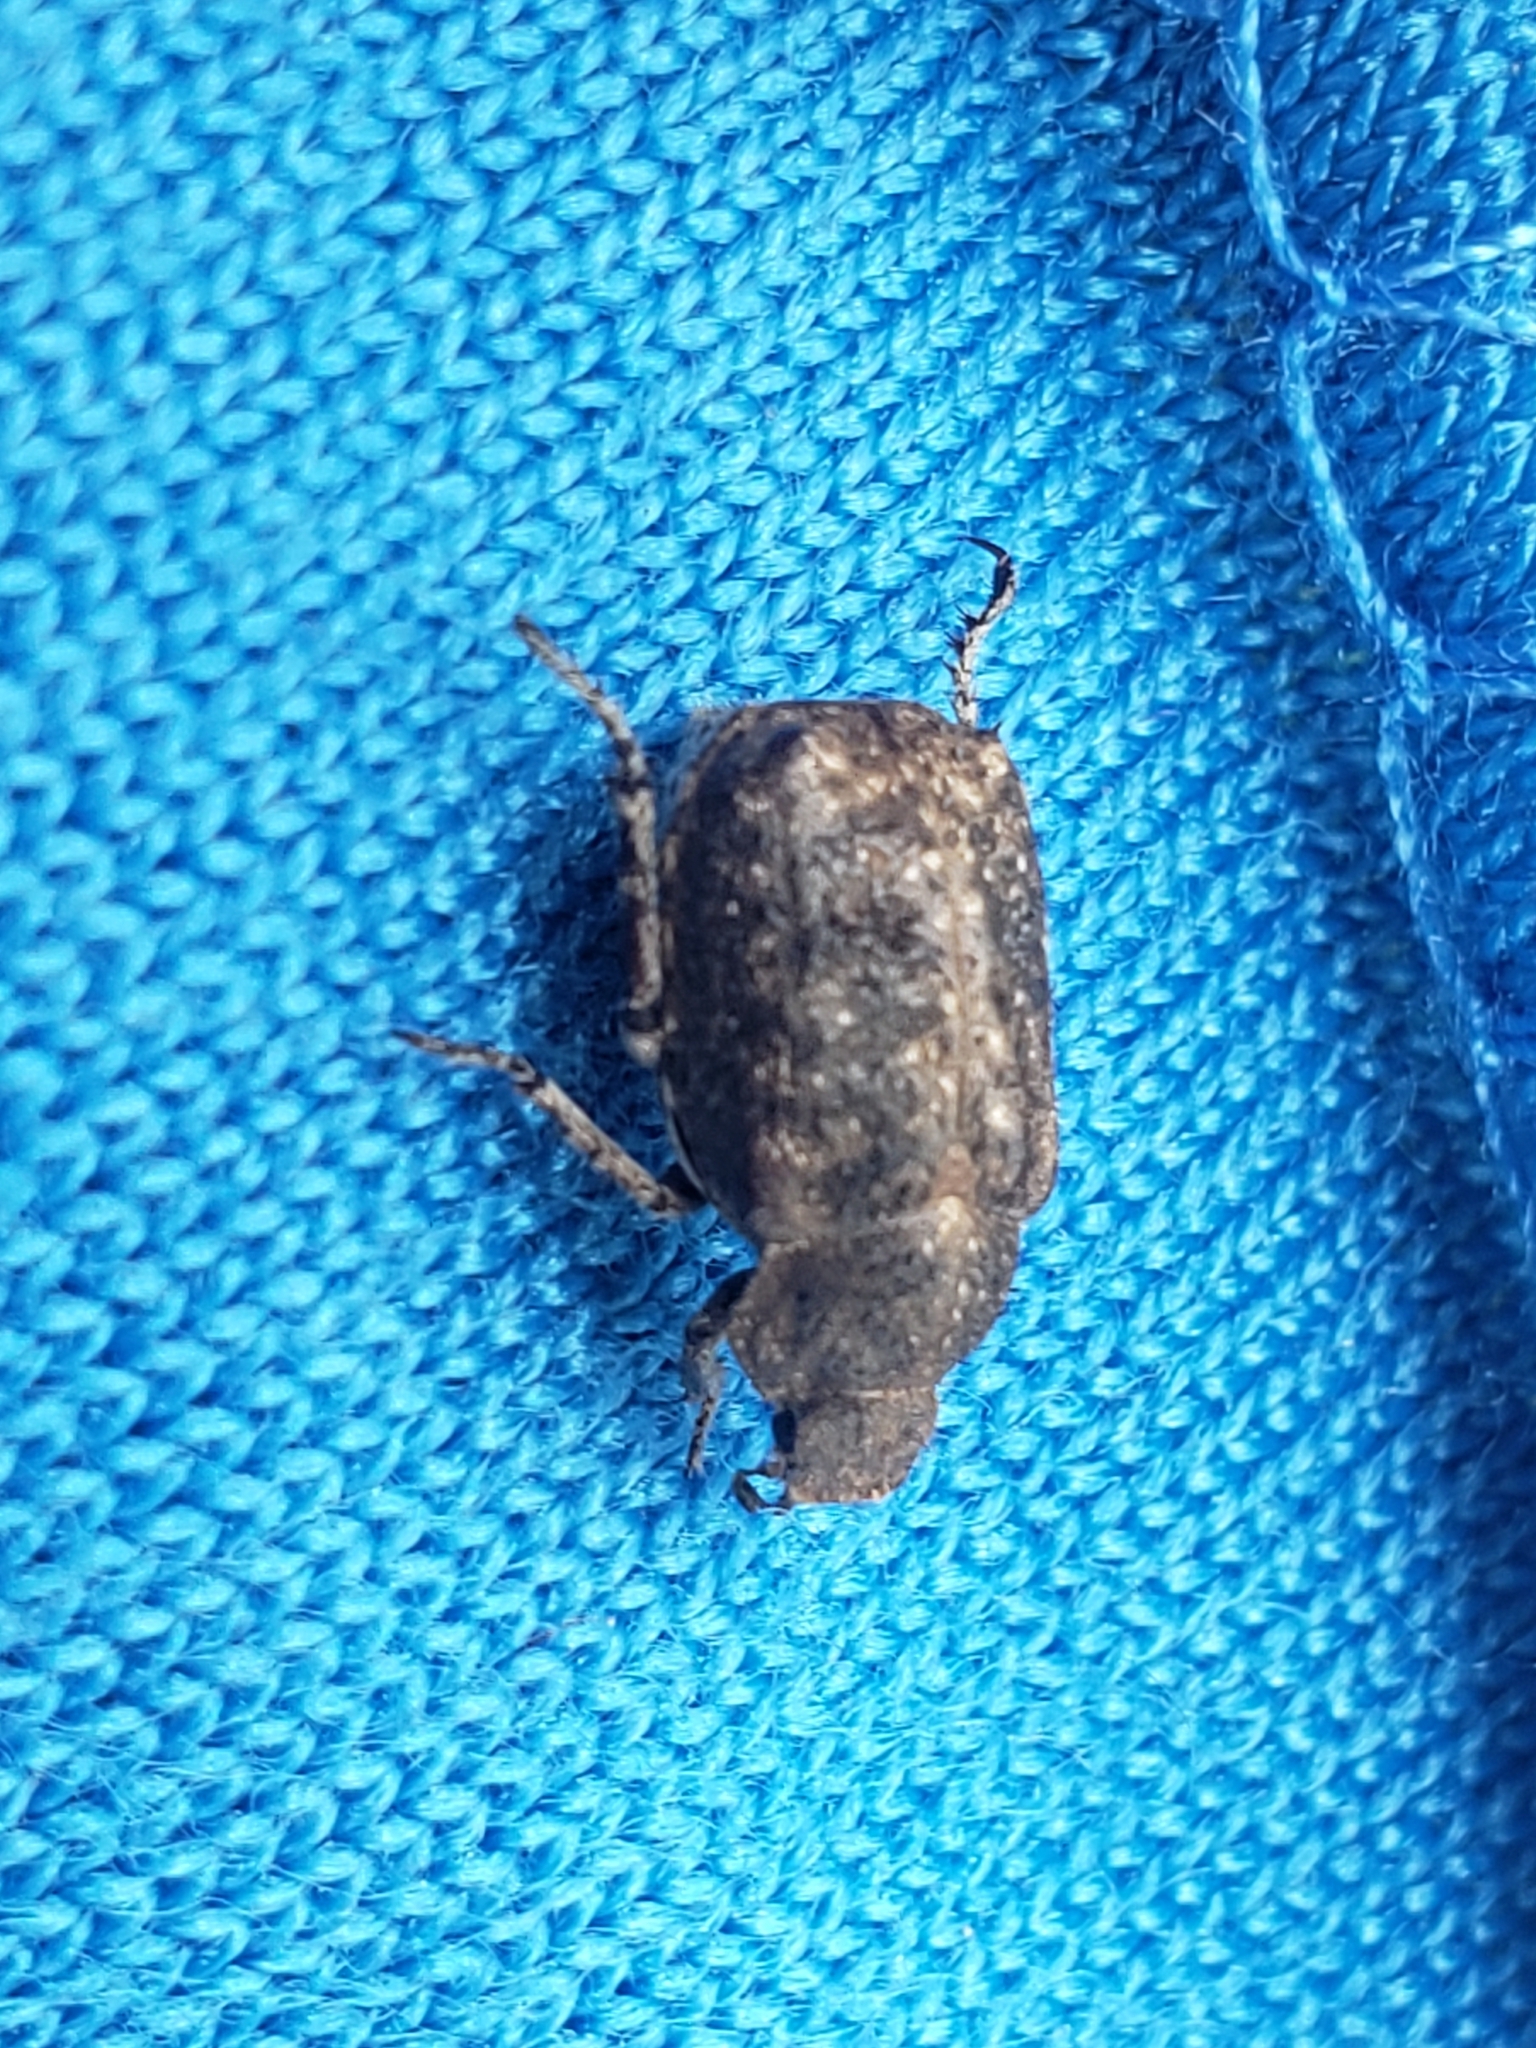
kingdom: Animalia
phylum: Arthropoda
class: Insecta
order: Coleoptera
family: Scarabaeidae
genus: Hoplia
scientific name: Hoplia sordida
